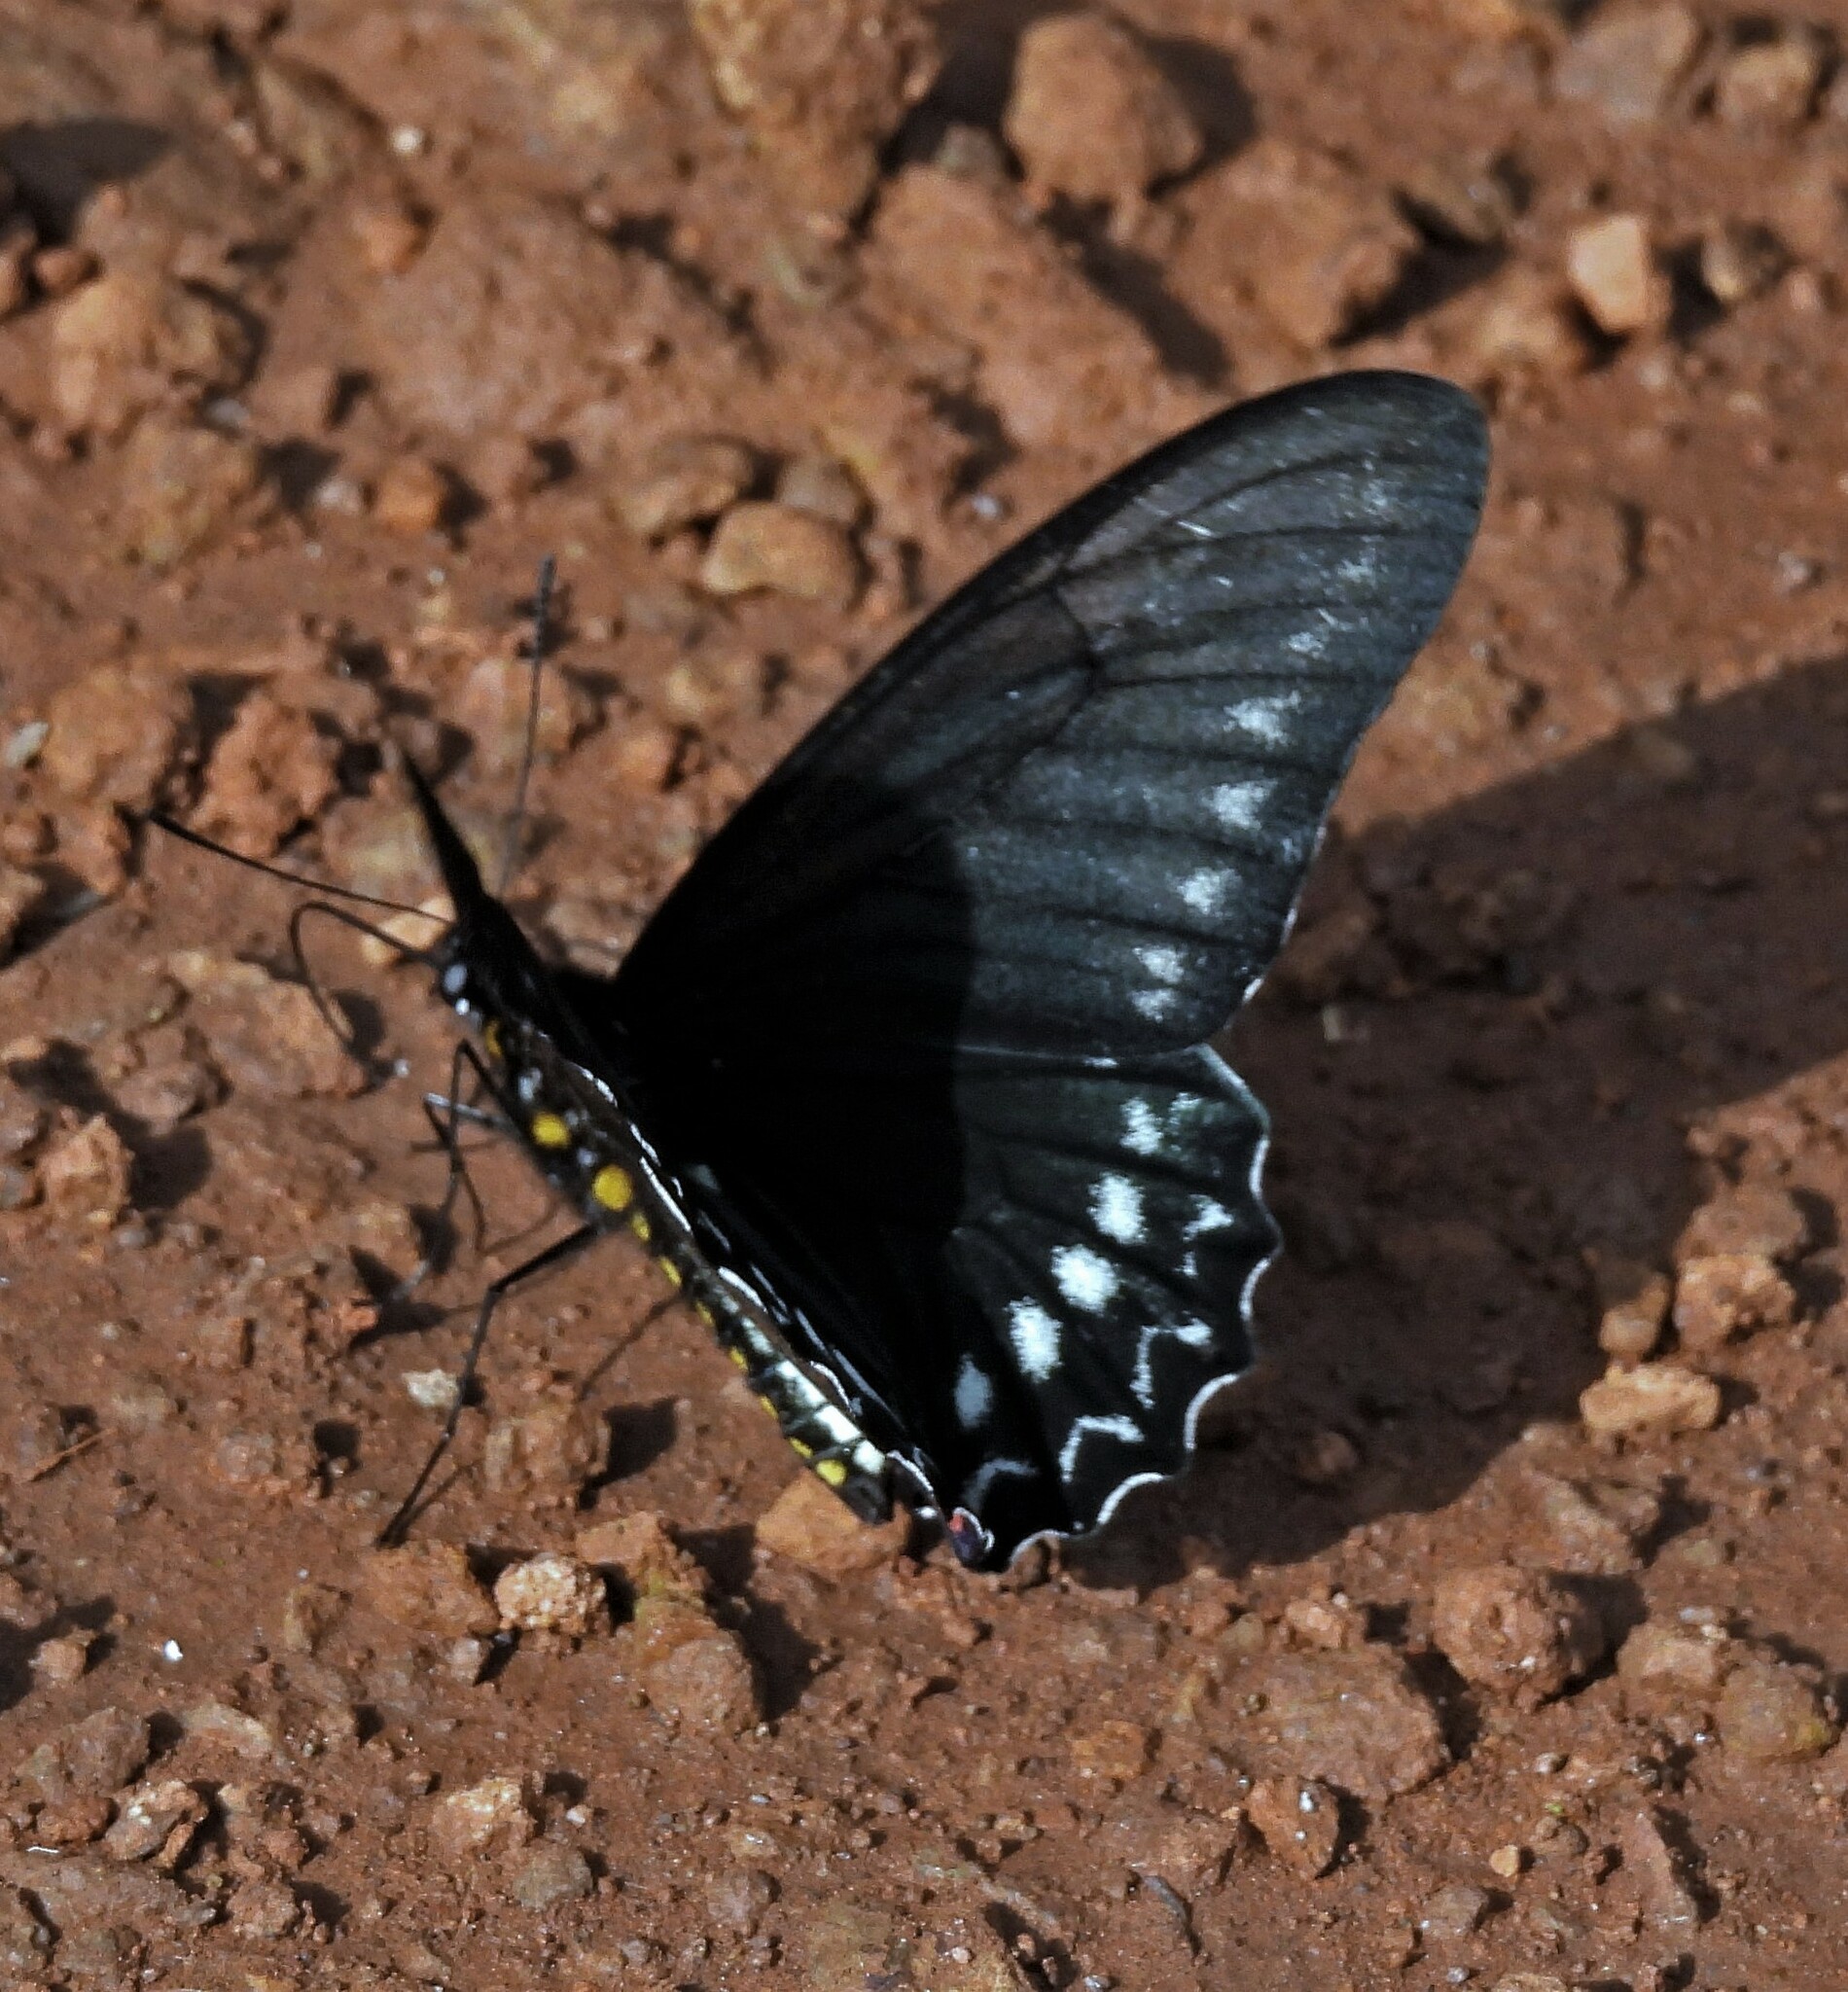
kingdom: Animalia
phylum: Arthropoda
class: Insecta
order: Lepidoptera
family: Papilionidae
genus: Battus
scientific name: Battus polystictus
